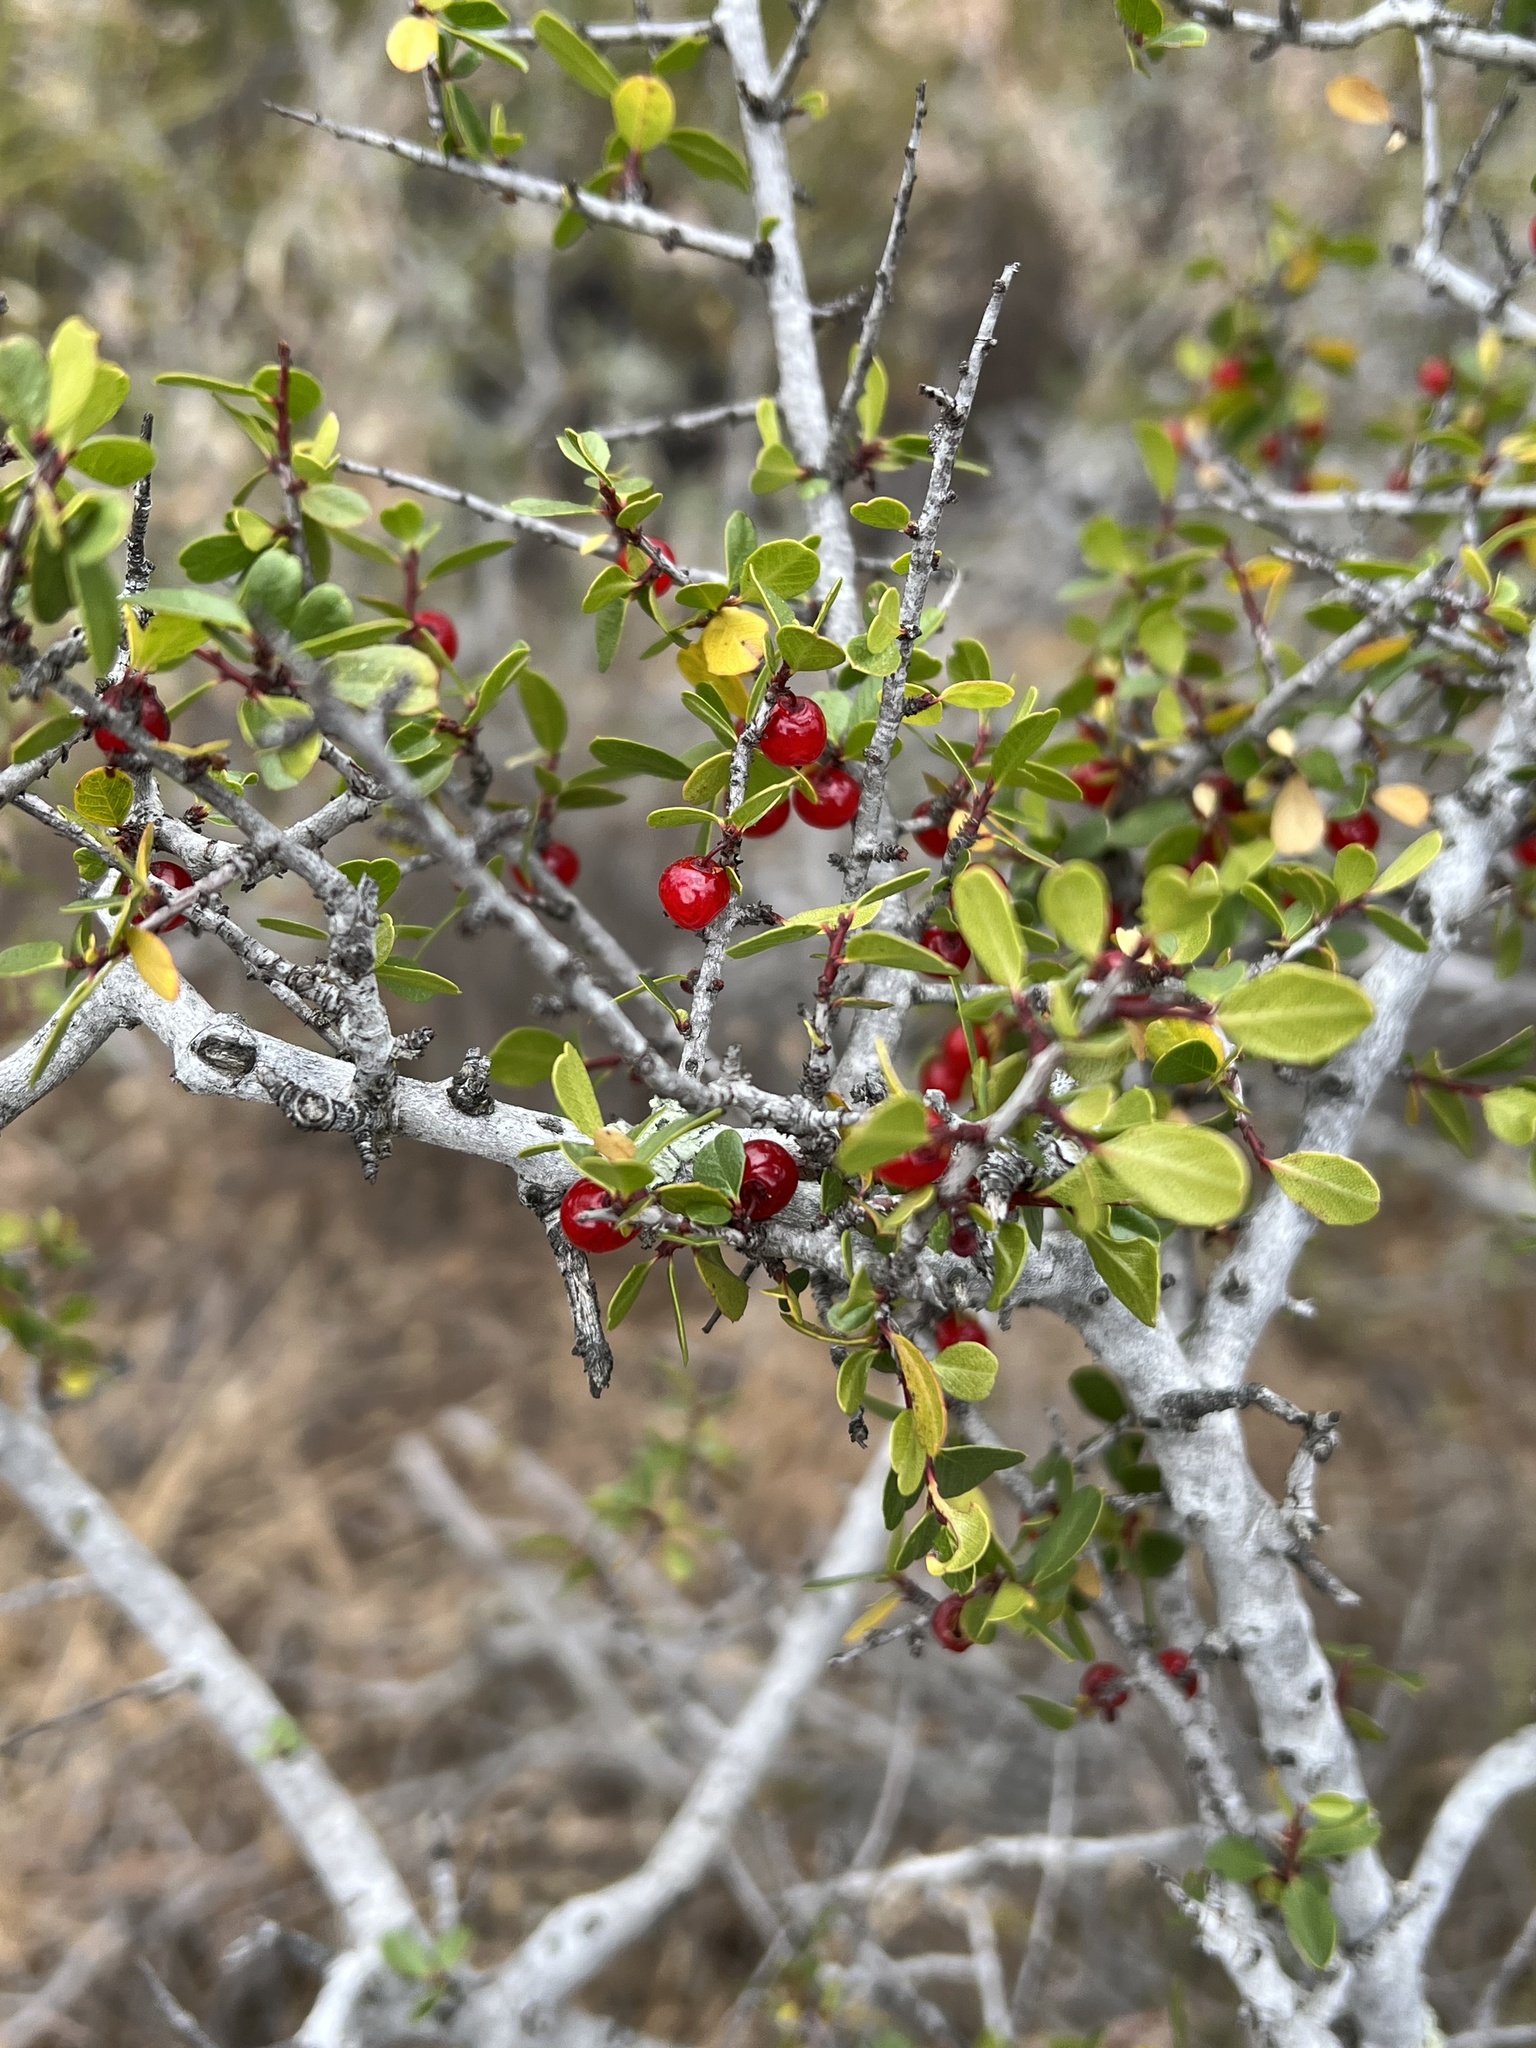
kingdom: Plantae
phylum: Tracheophyta
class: Magnoliopsida
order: Rosales
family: Rhamnaceae
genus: Endotropis
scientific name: Endotropis crocea
